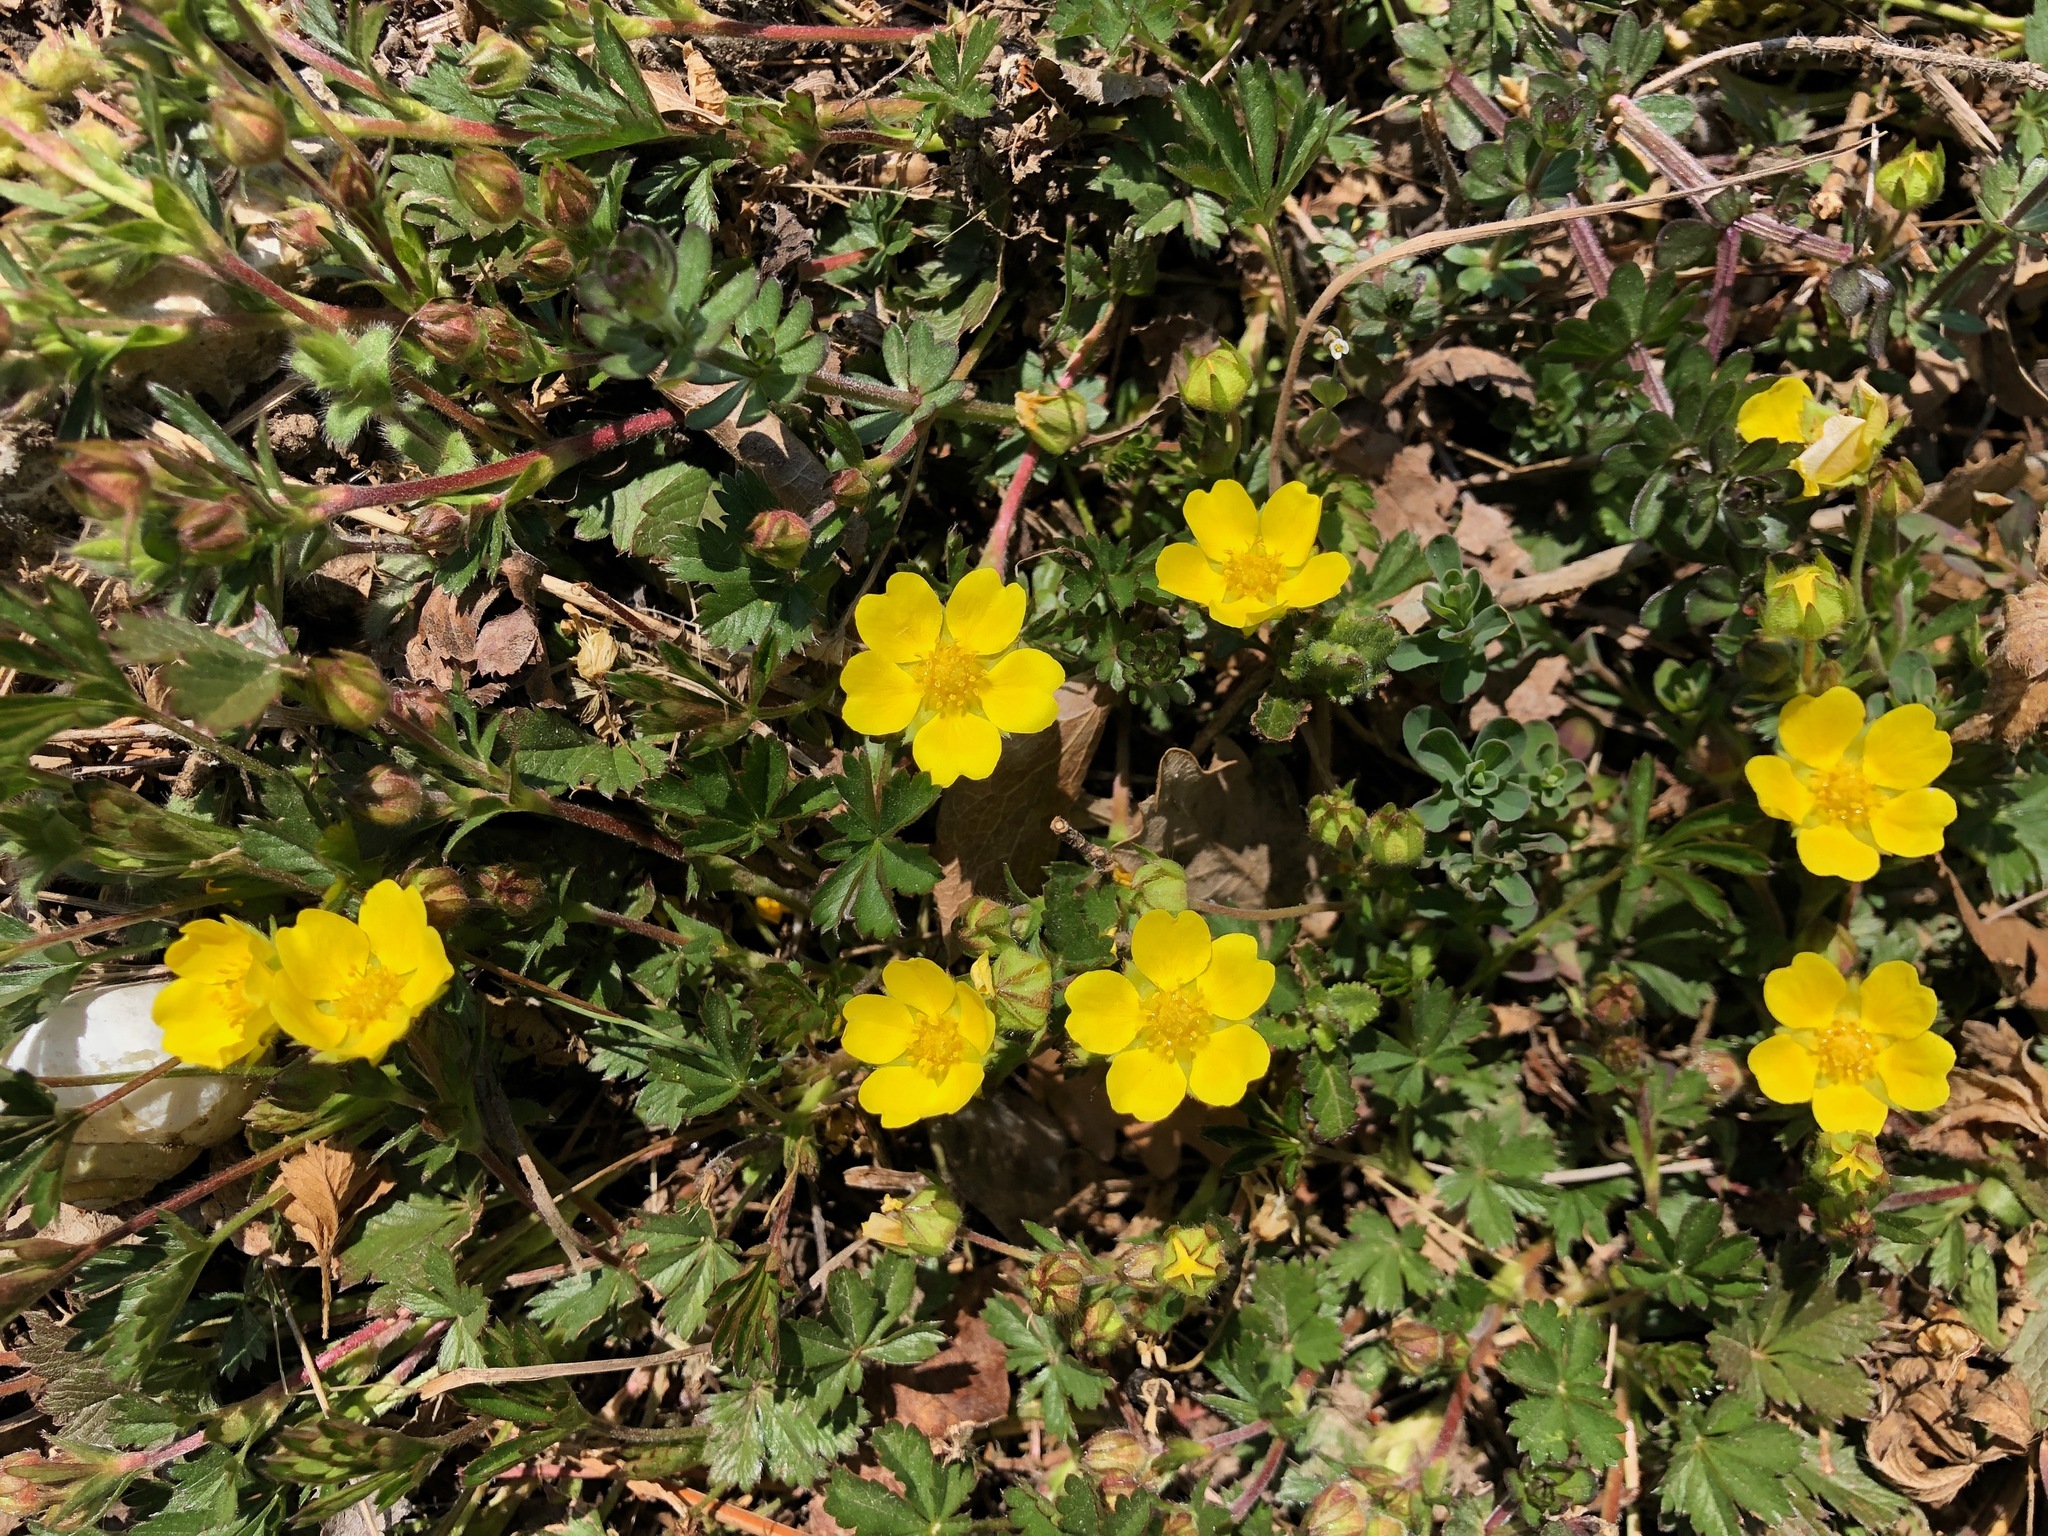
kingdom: Plantae
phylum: Tracheophyta
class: Magnoliopsida
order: Rosales
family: Rosaceae
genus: Potentilla
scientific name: Potentilla verna
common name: Spring cinquefoil
